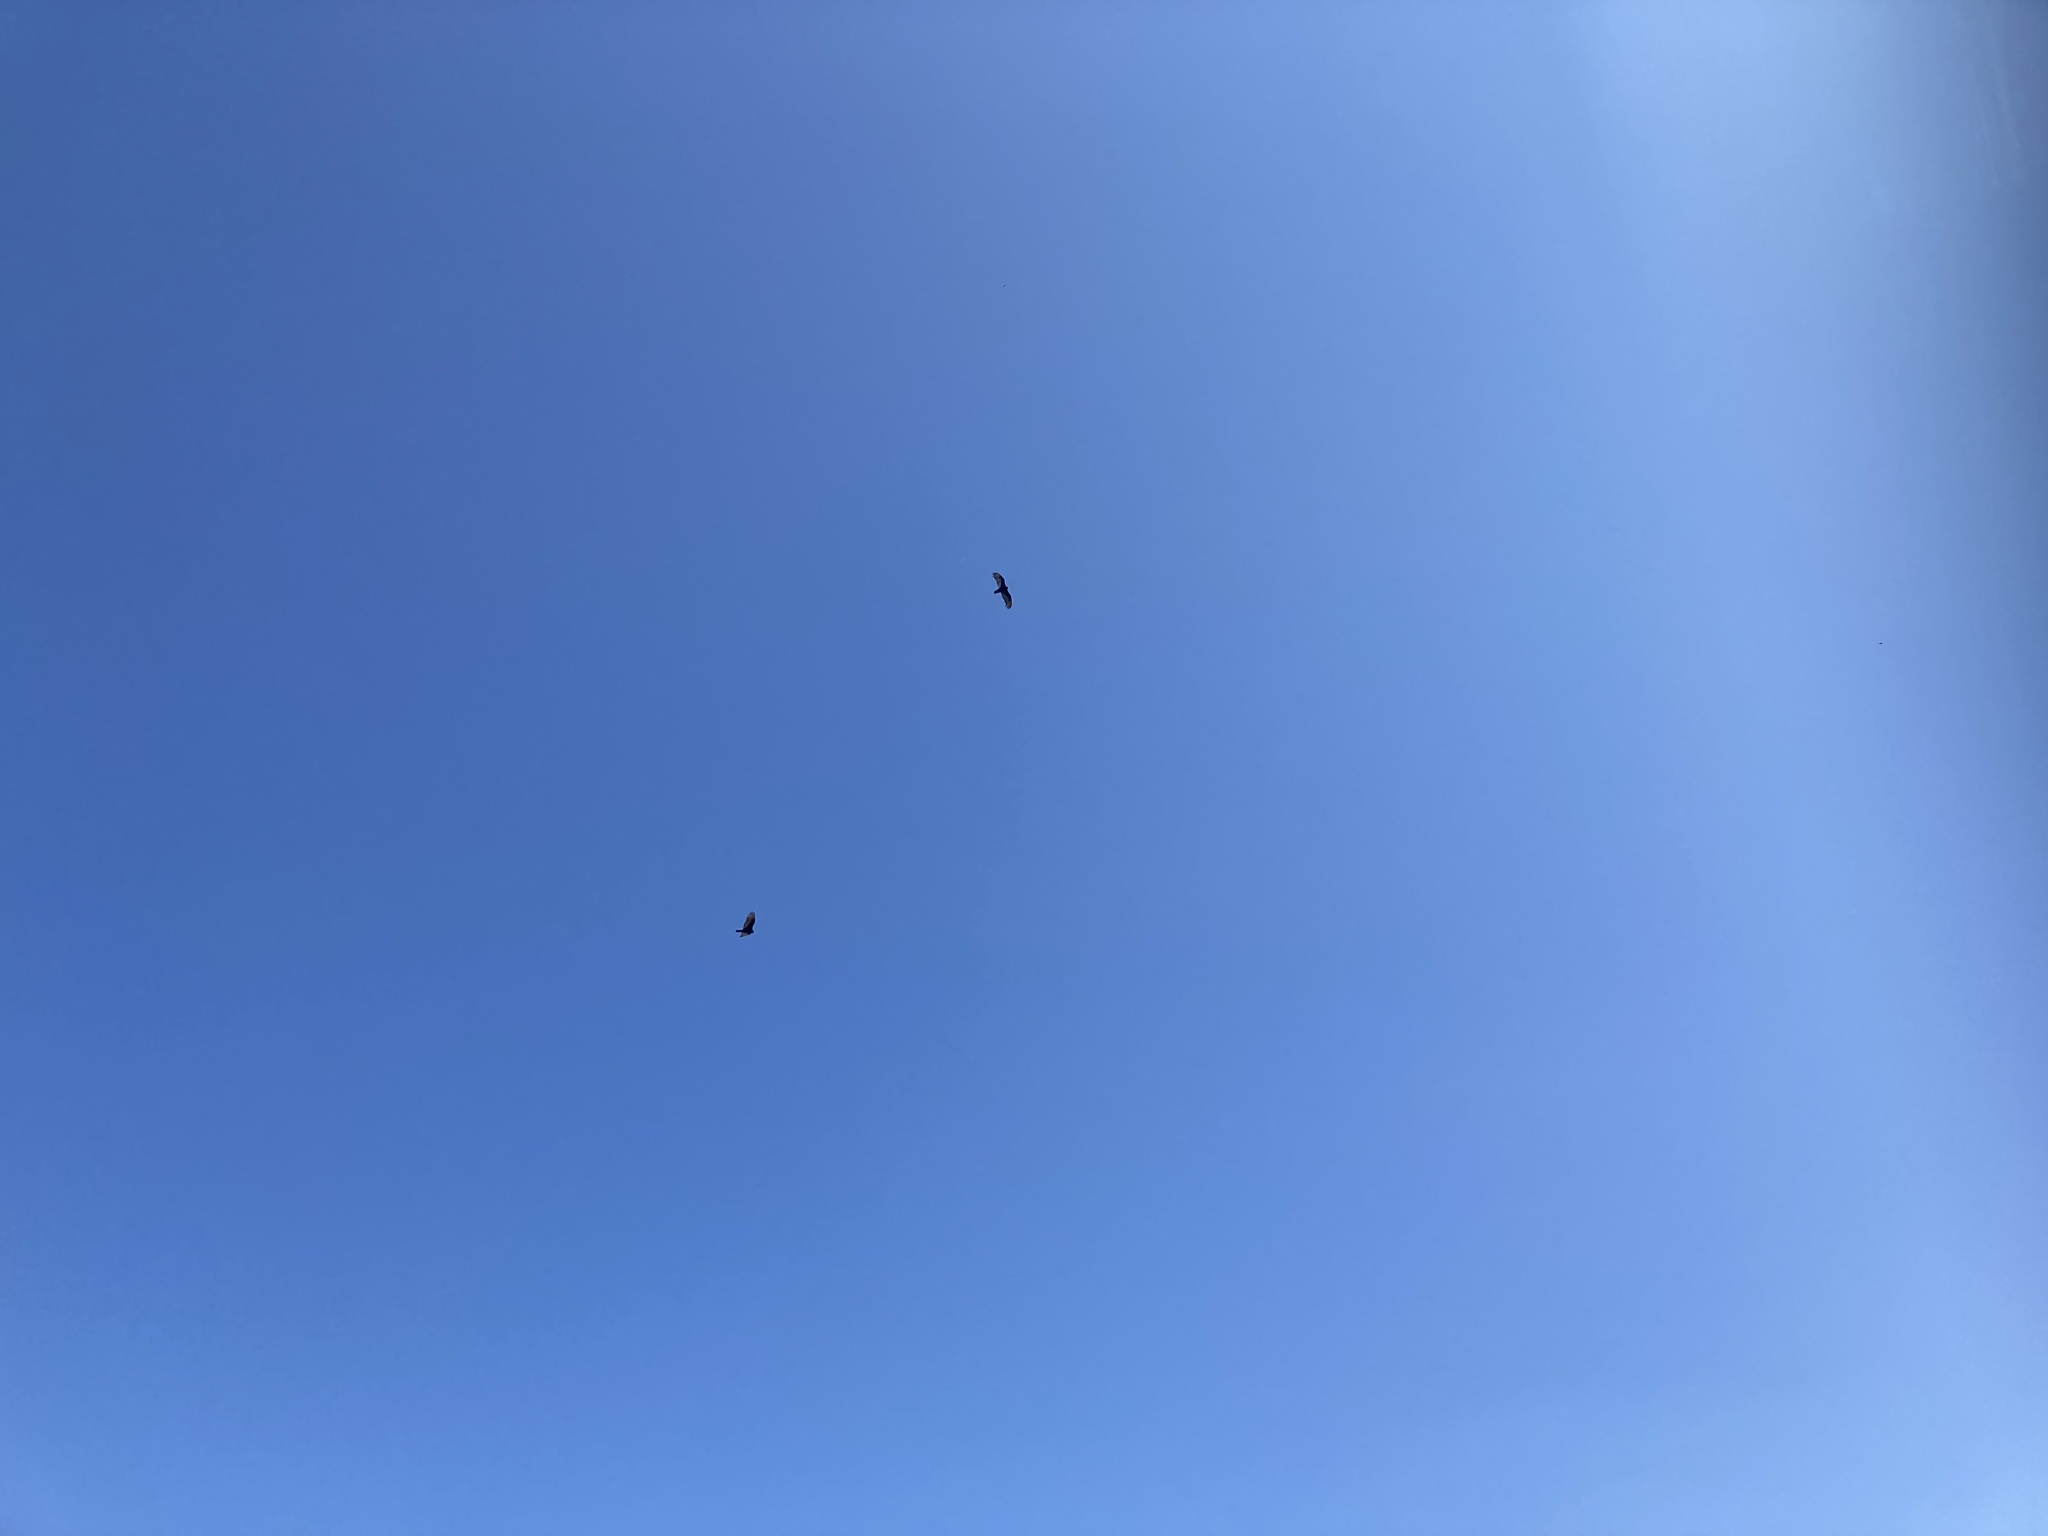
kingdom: Animalia
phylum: Chordata
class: Aves
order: Accipitriformes
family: Cathartidae
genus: Cathartes
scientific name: Cathartes aura
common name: Turkey vulture
